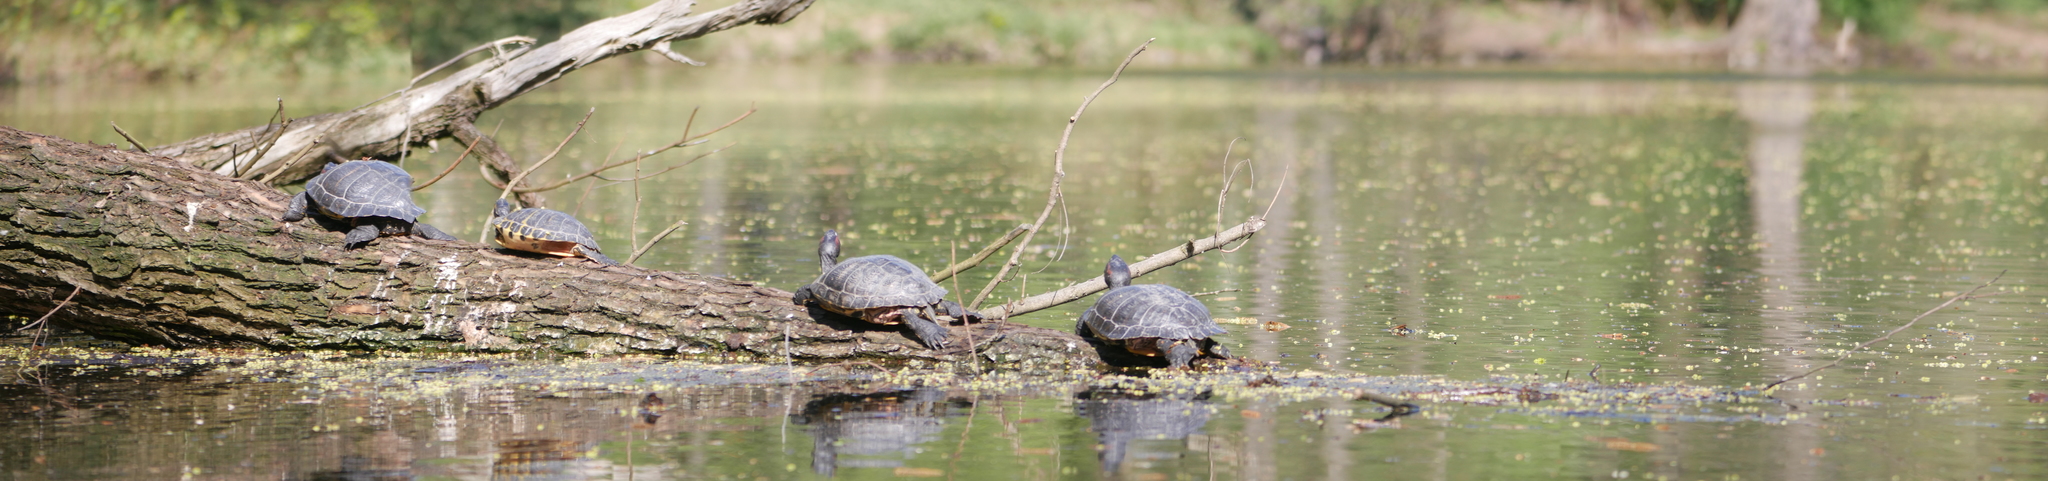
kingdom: Animalia
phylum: Chordata
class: Testudines
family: Emydidae
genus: Trachemys
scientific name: Trachemys scripta
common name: Slider
